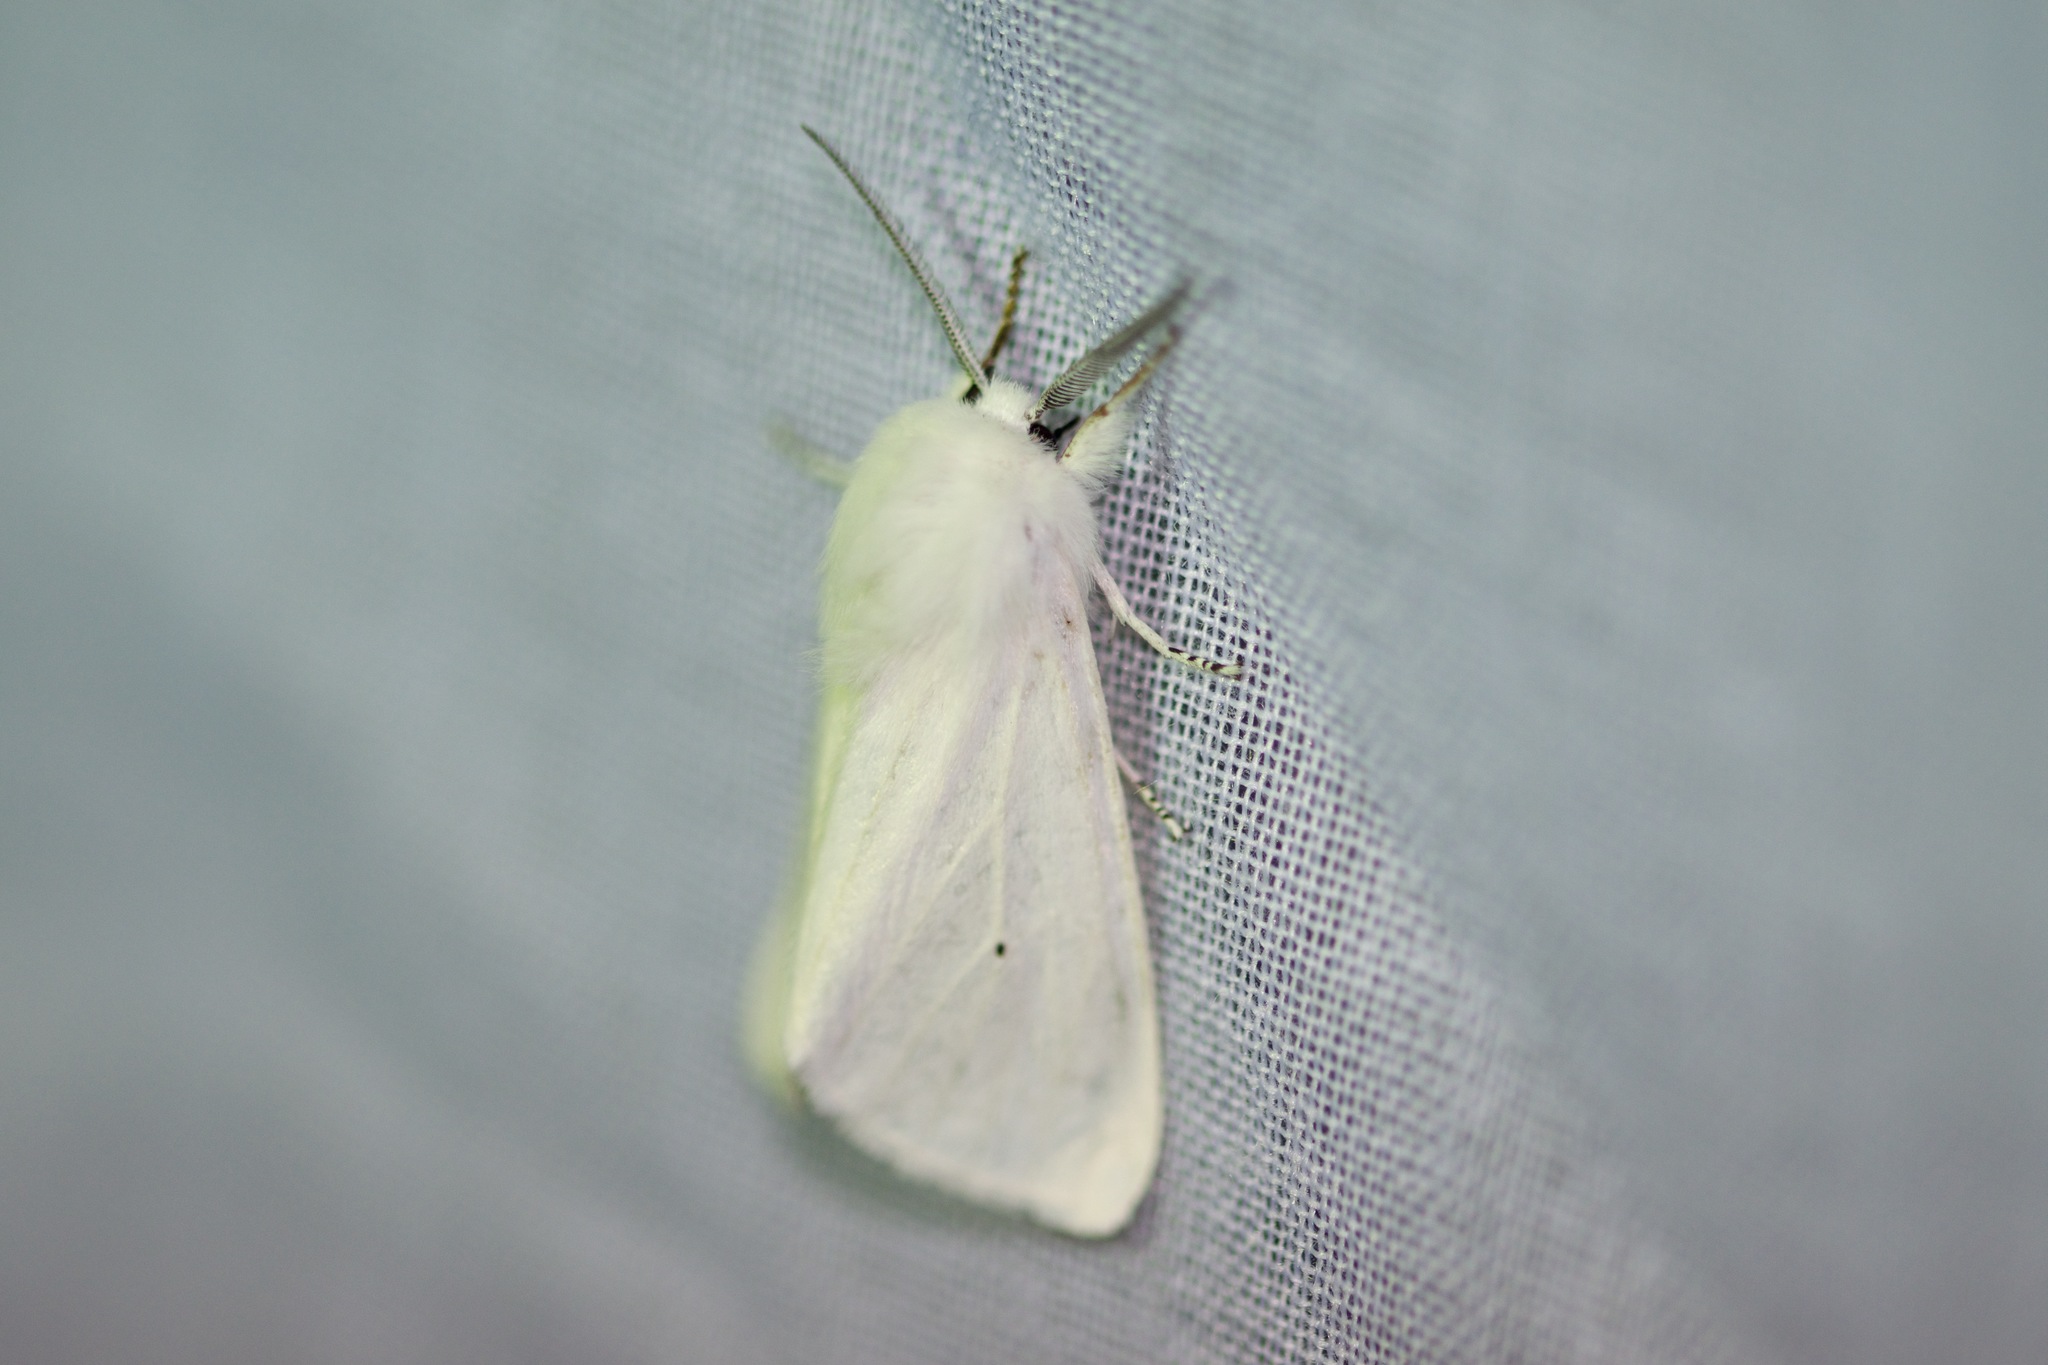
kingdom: Animalia
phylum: Arthropoda
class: Insecta
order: Lepidoptera
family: Erebidae
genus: Spilosoma
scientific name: Spilosoma virginica
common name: Virginia tiger moth
